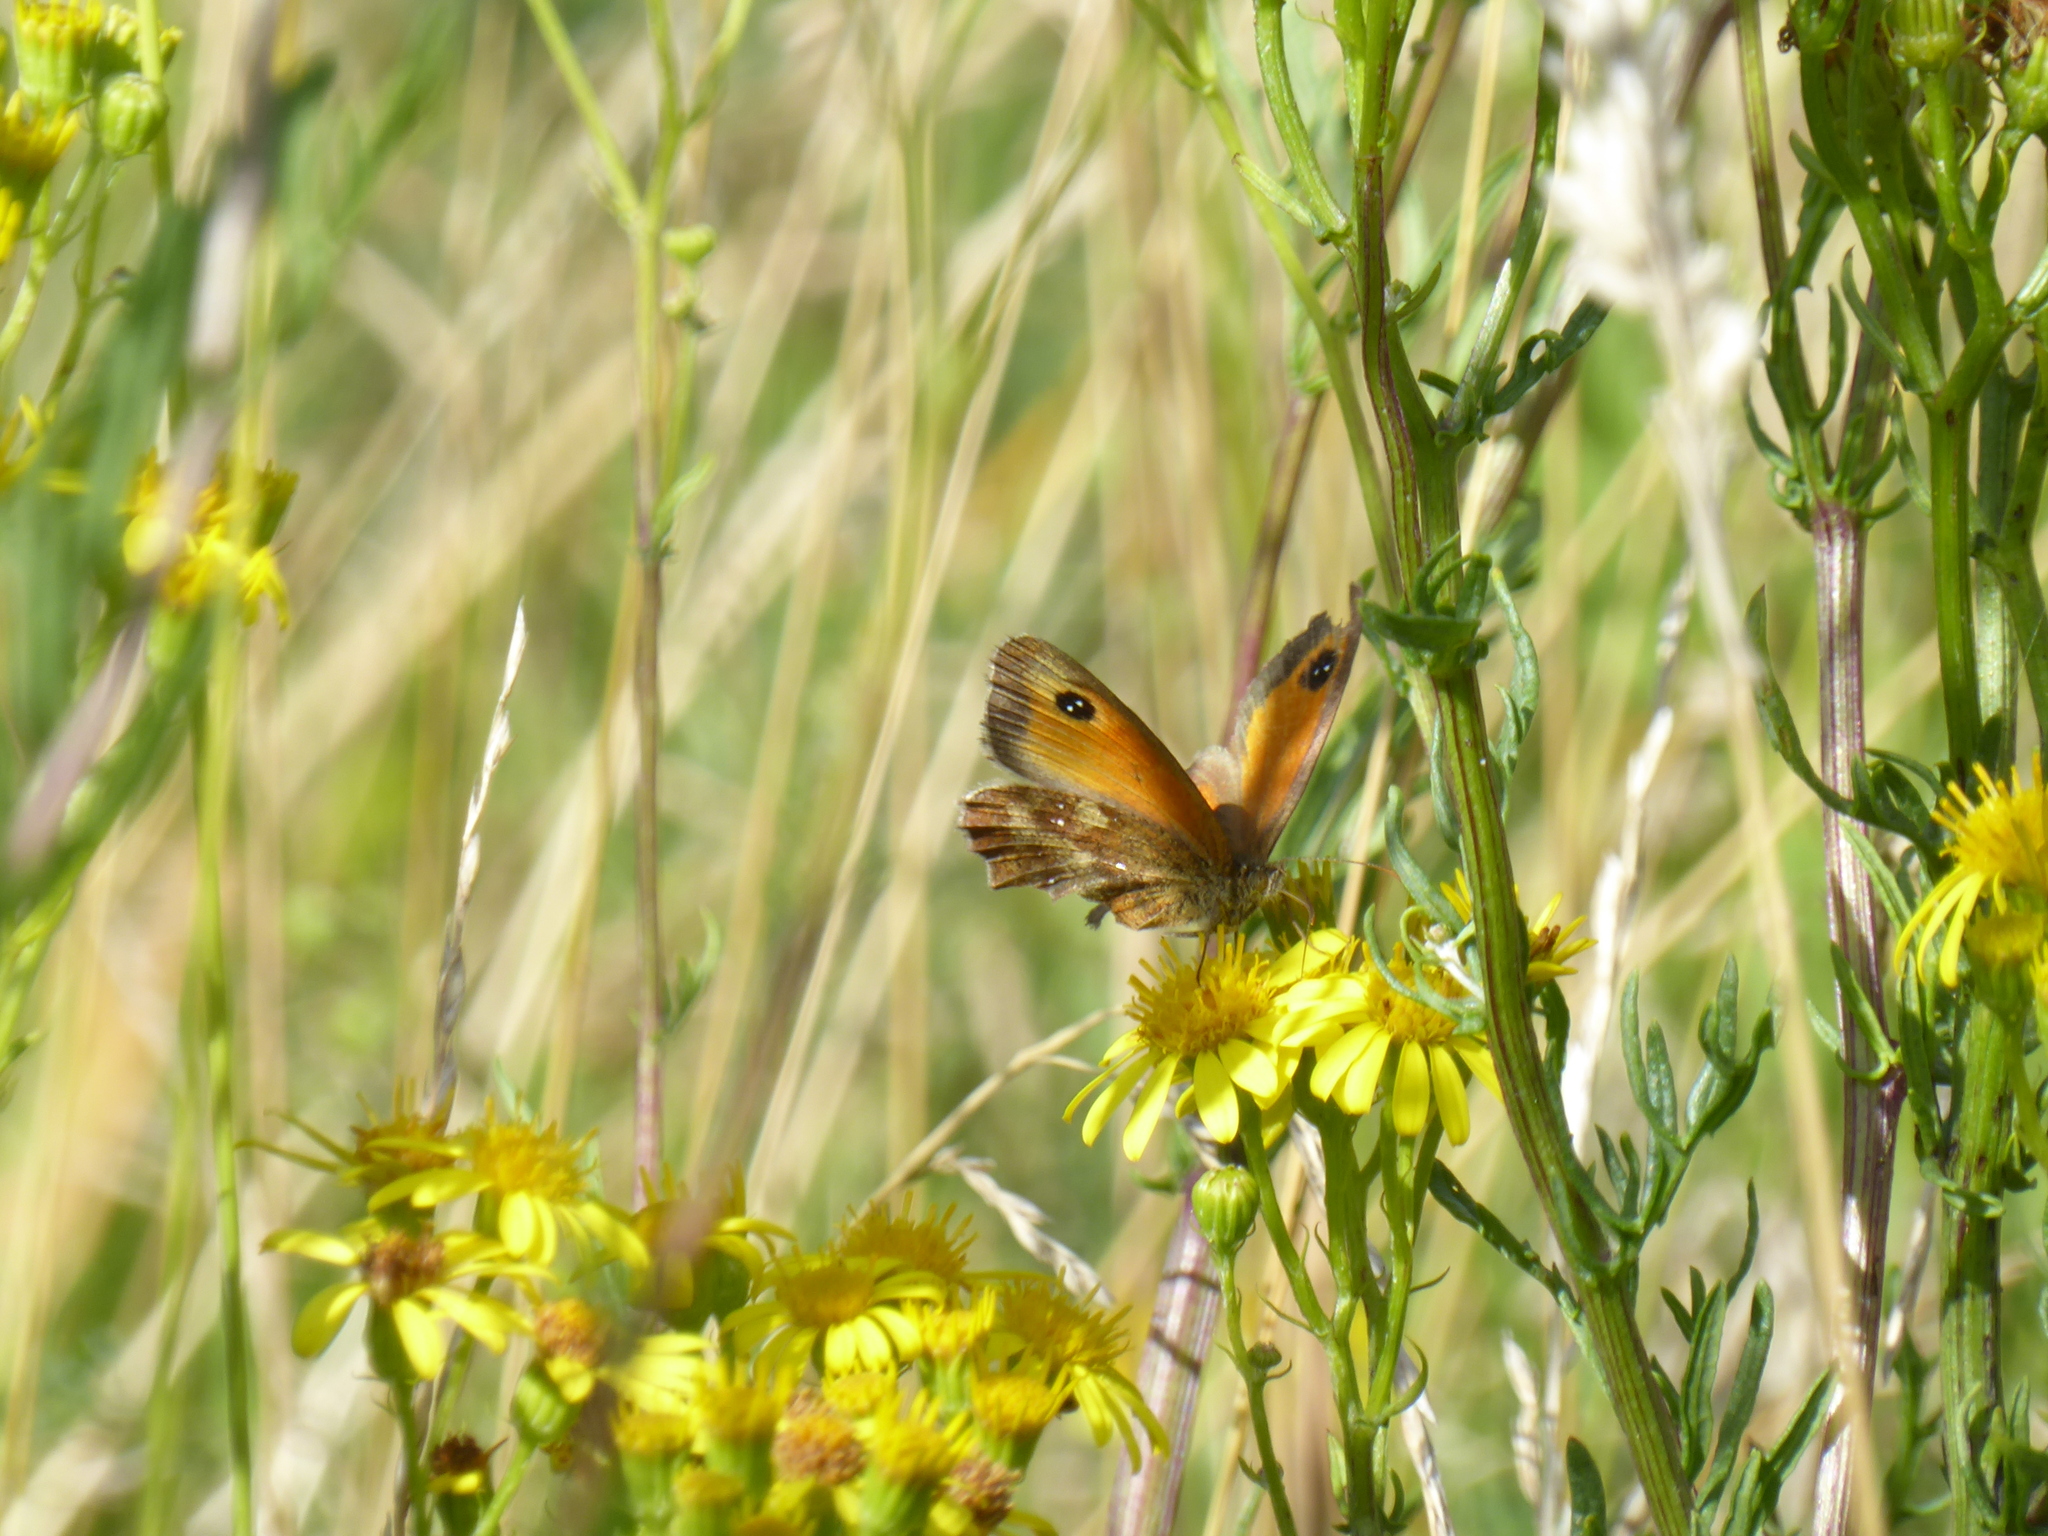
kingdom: Animalia
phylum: Arthropoda
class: Insecta
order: Lepidoptera
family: Nymphalidae
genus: Pyronia
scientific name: Pyronia tithonus
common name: Gatekeeper
